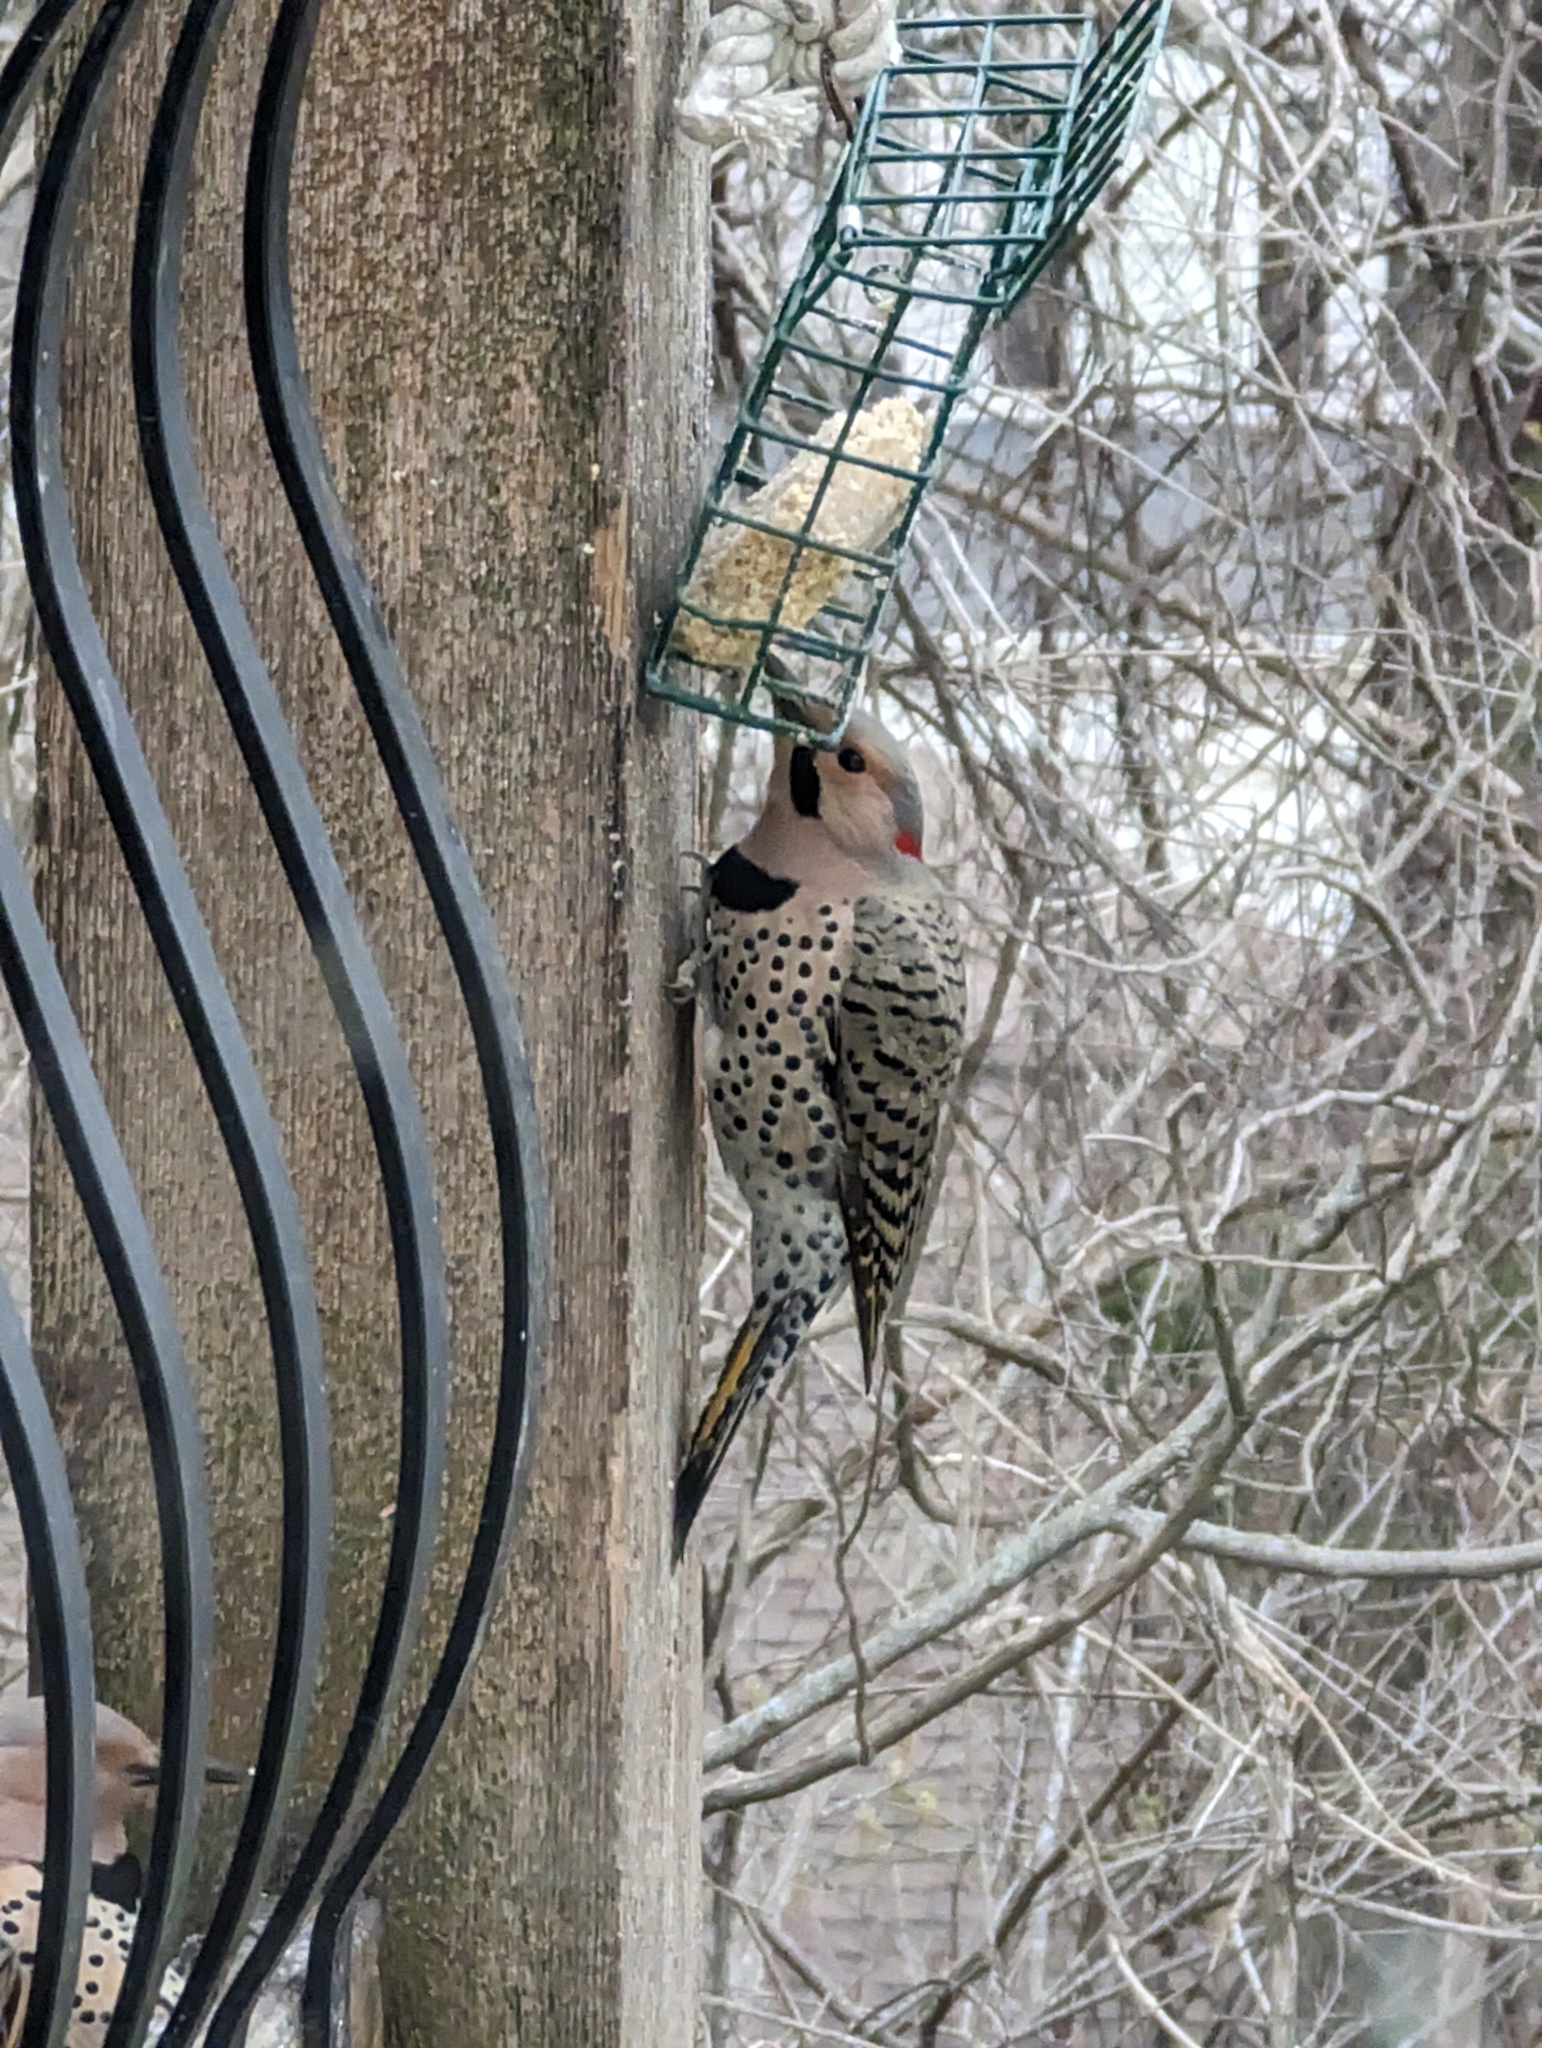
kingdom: Animalia
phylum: Chordata
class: Aves
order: Piciformes
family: Picidae
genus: Colaptes
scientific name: Colaptes auratus
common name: Northern flicker
